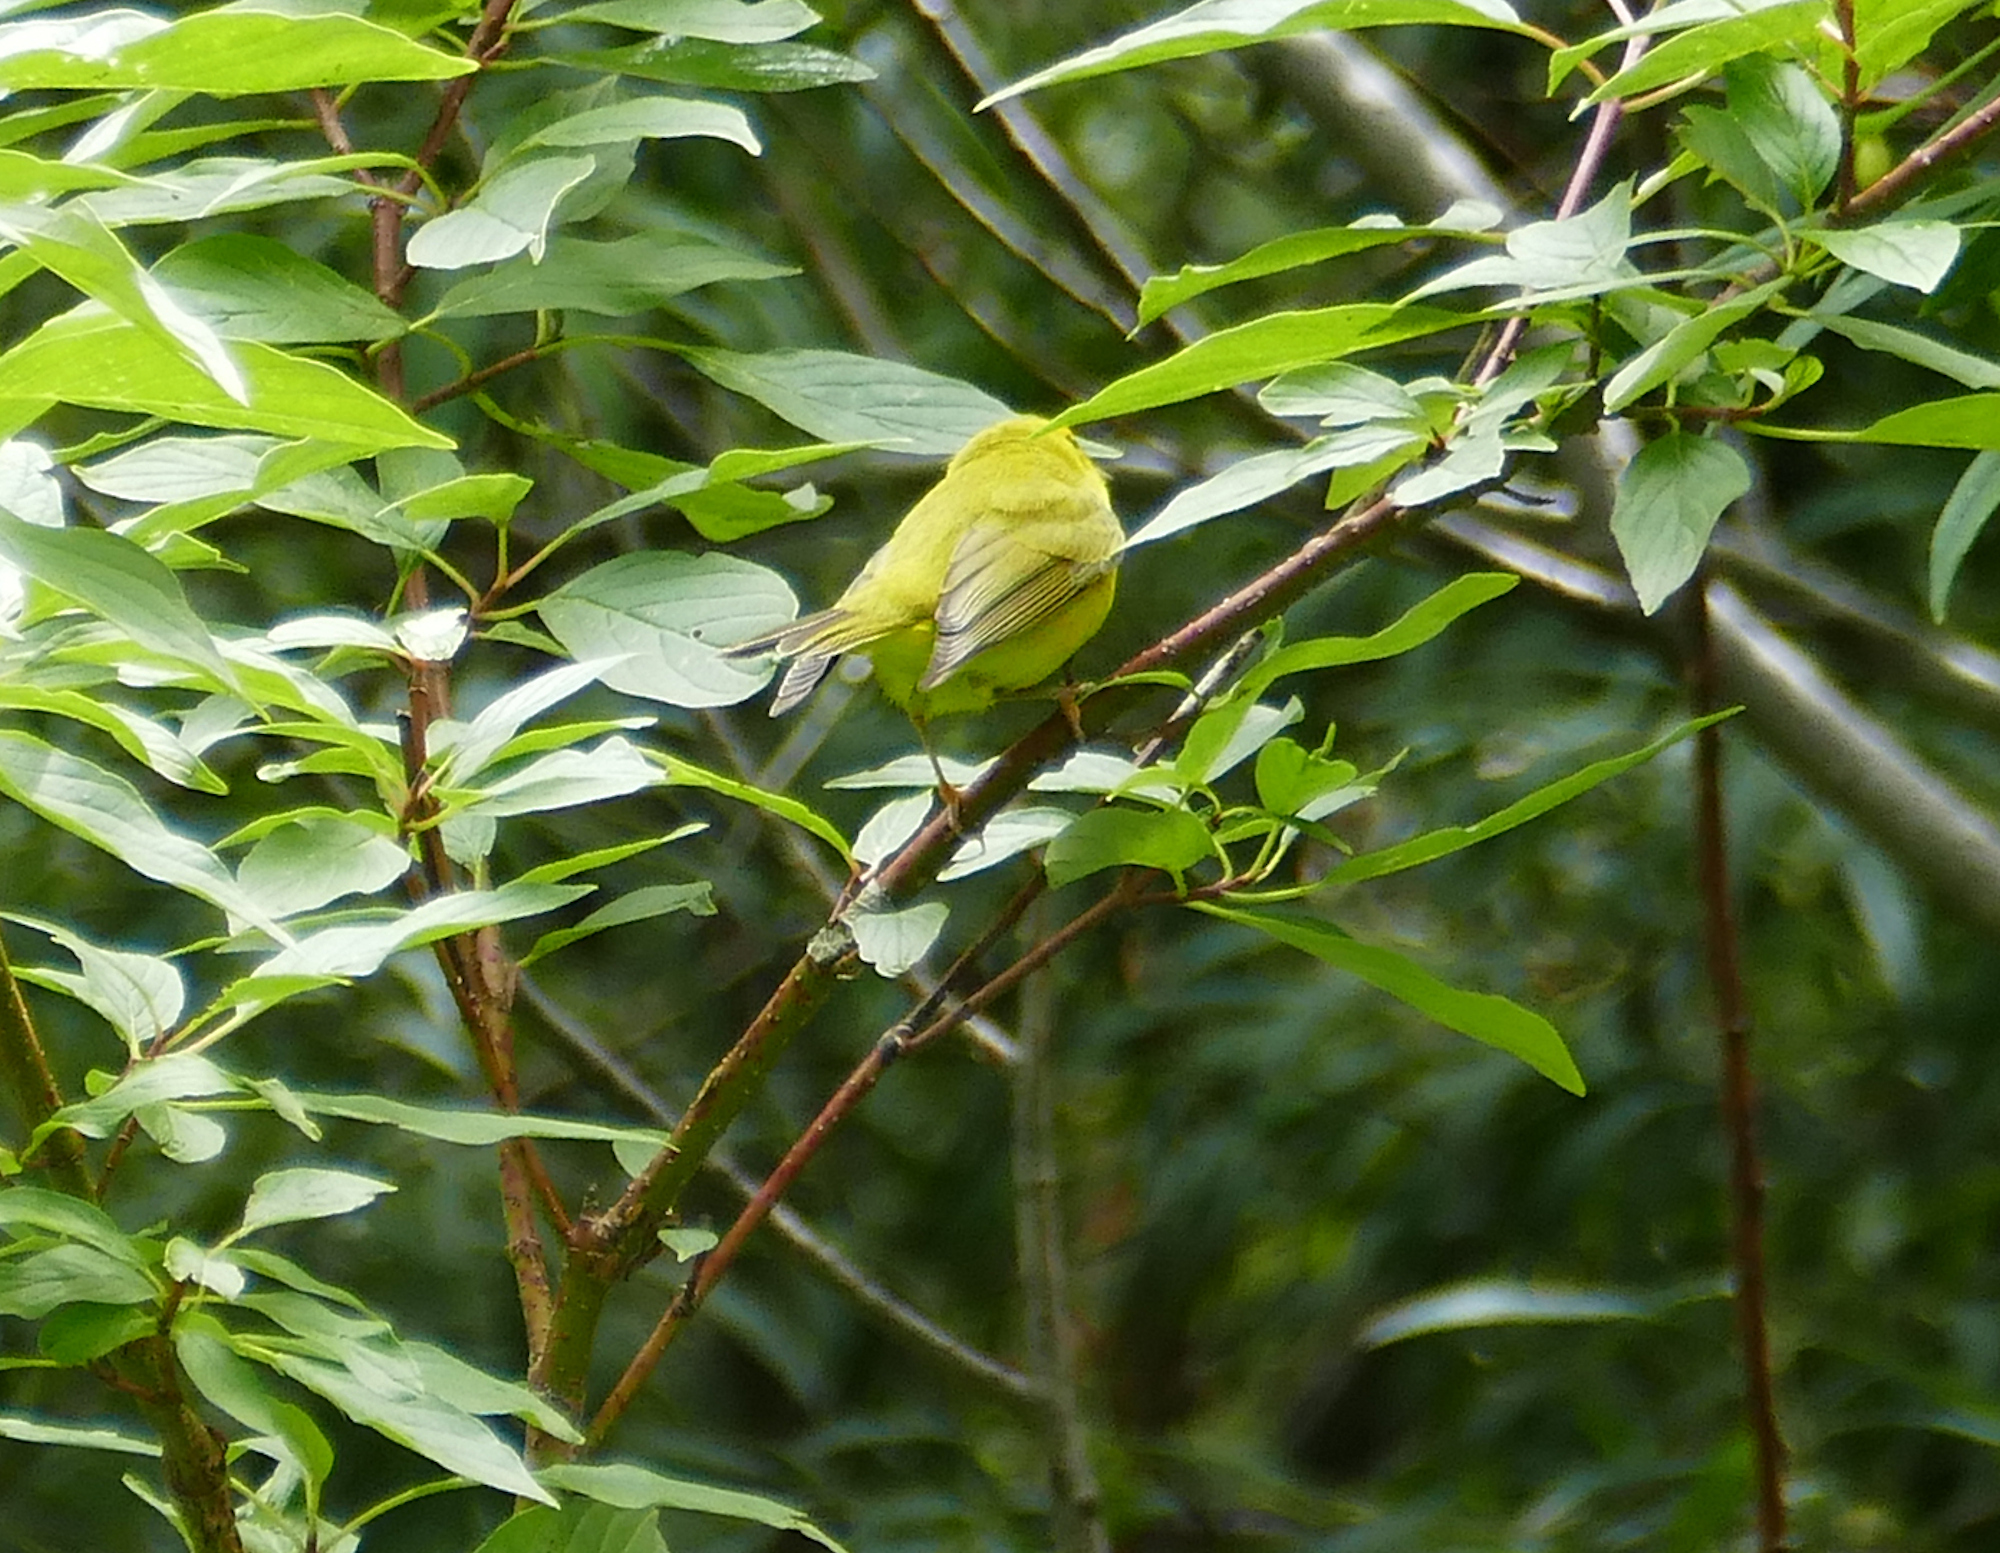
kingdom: Animalia
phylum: Chordata
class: Aves
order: Passeriformes
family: Parulidae
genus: Setophaga
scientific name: Setophaga petechia
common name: Yellow warbler
